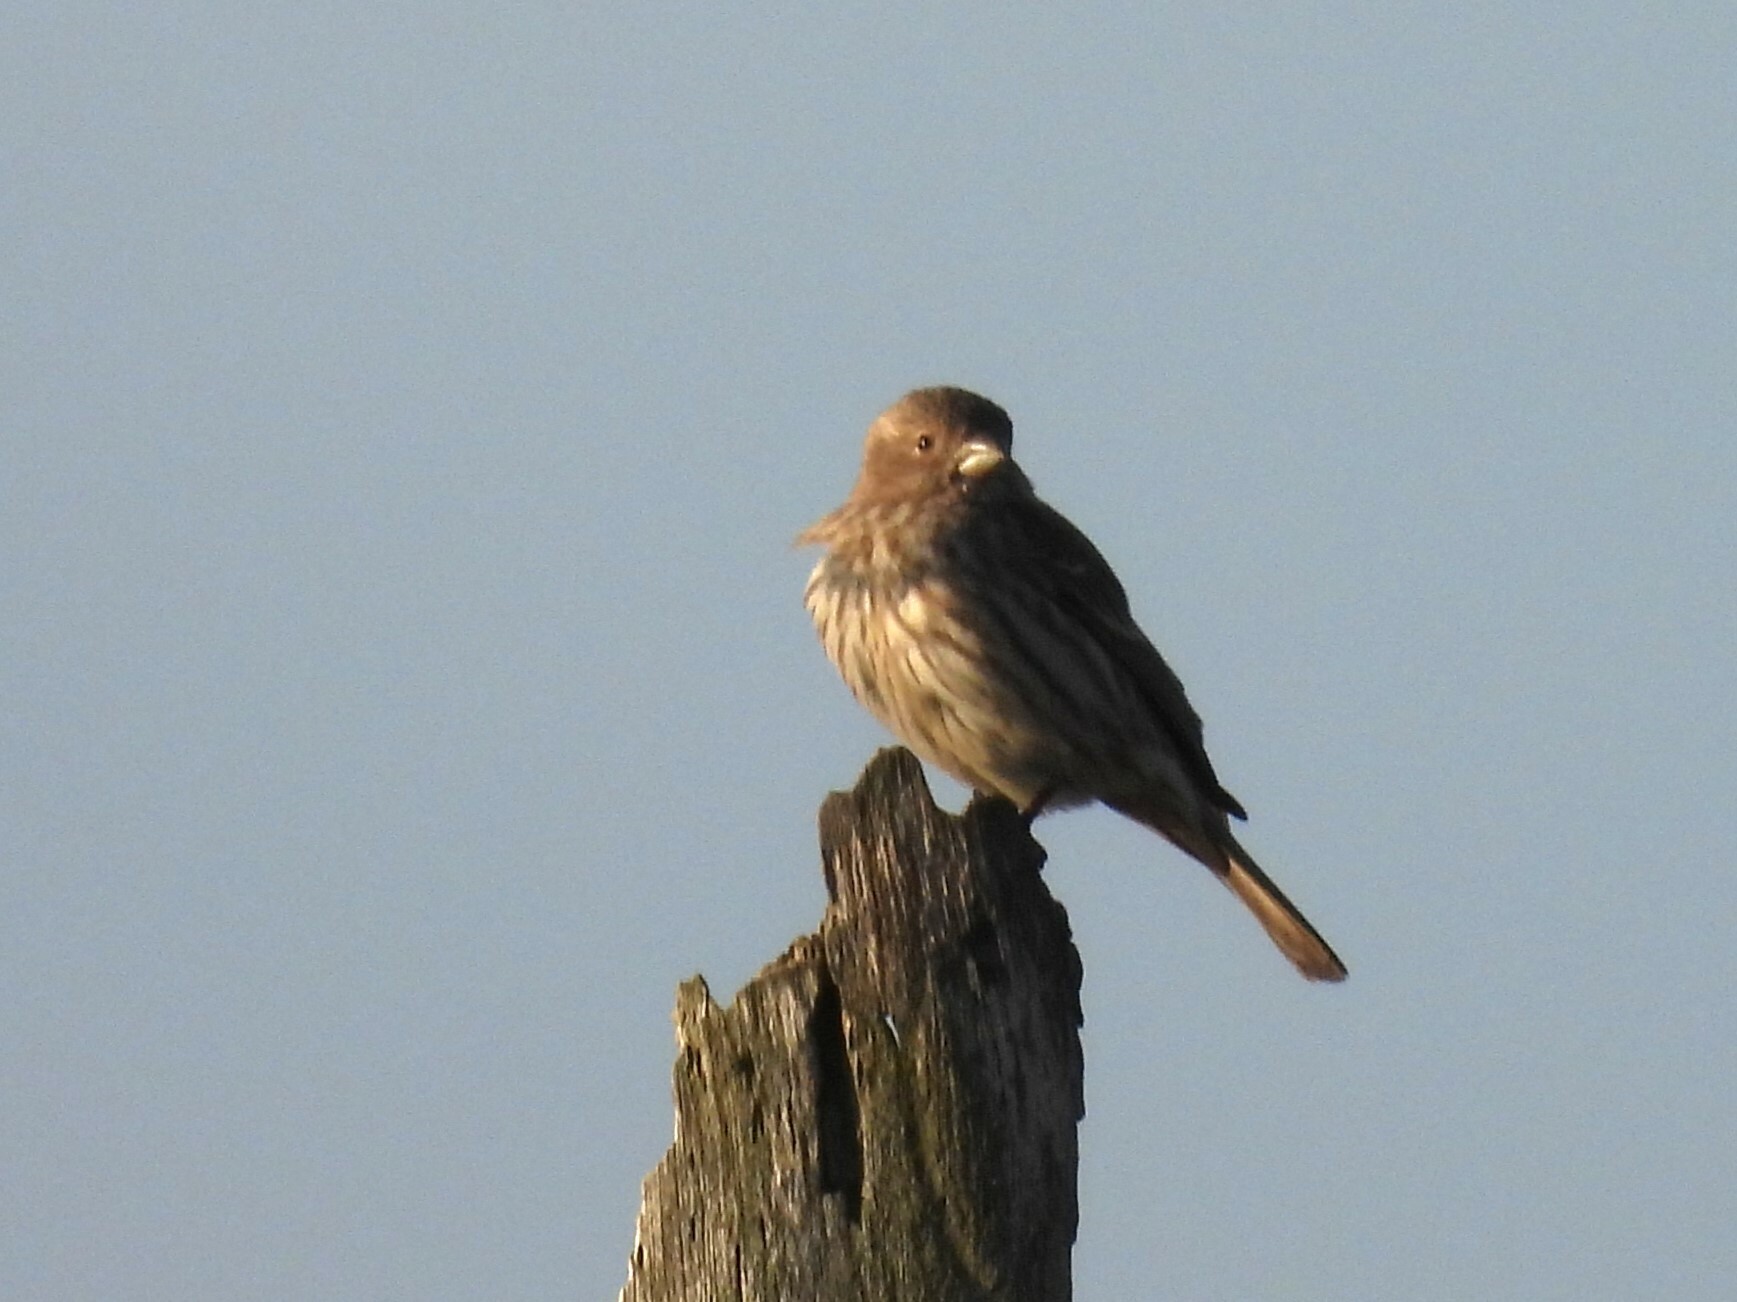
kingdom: Animalia
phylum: Chordata
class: Aves
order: Passeriformes
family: Fringillidae
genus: Haemorhous
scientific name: Haemorhous mexicanus
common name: House finch
